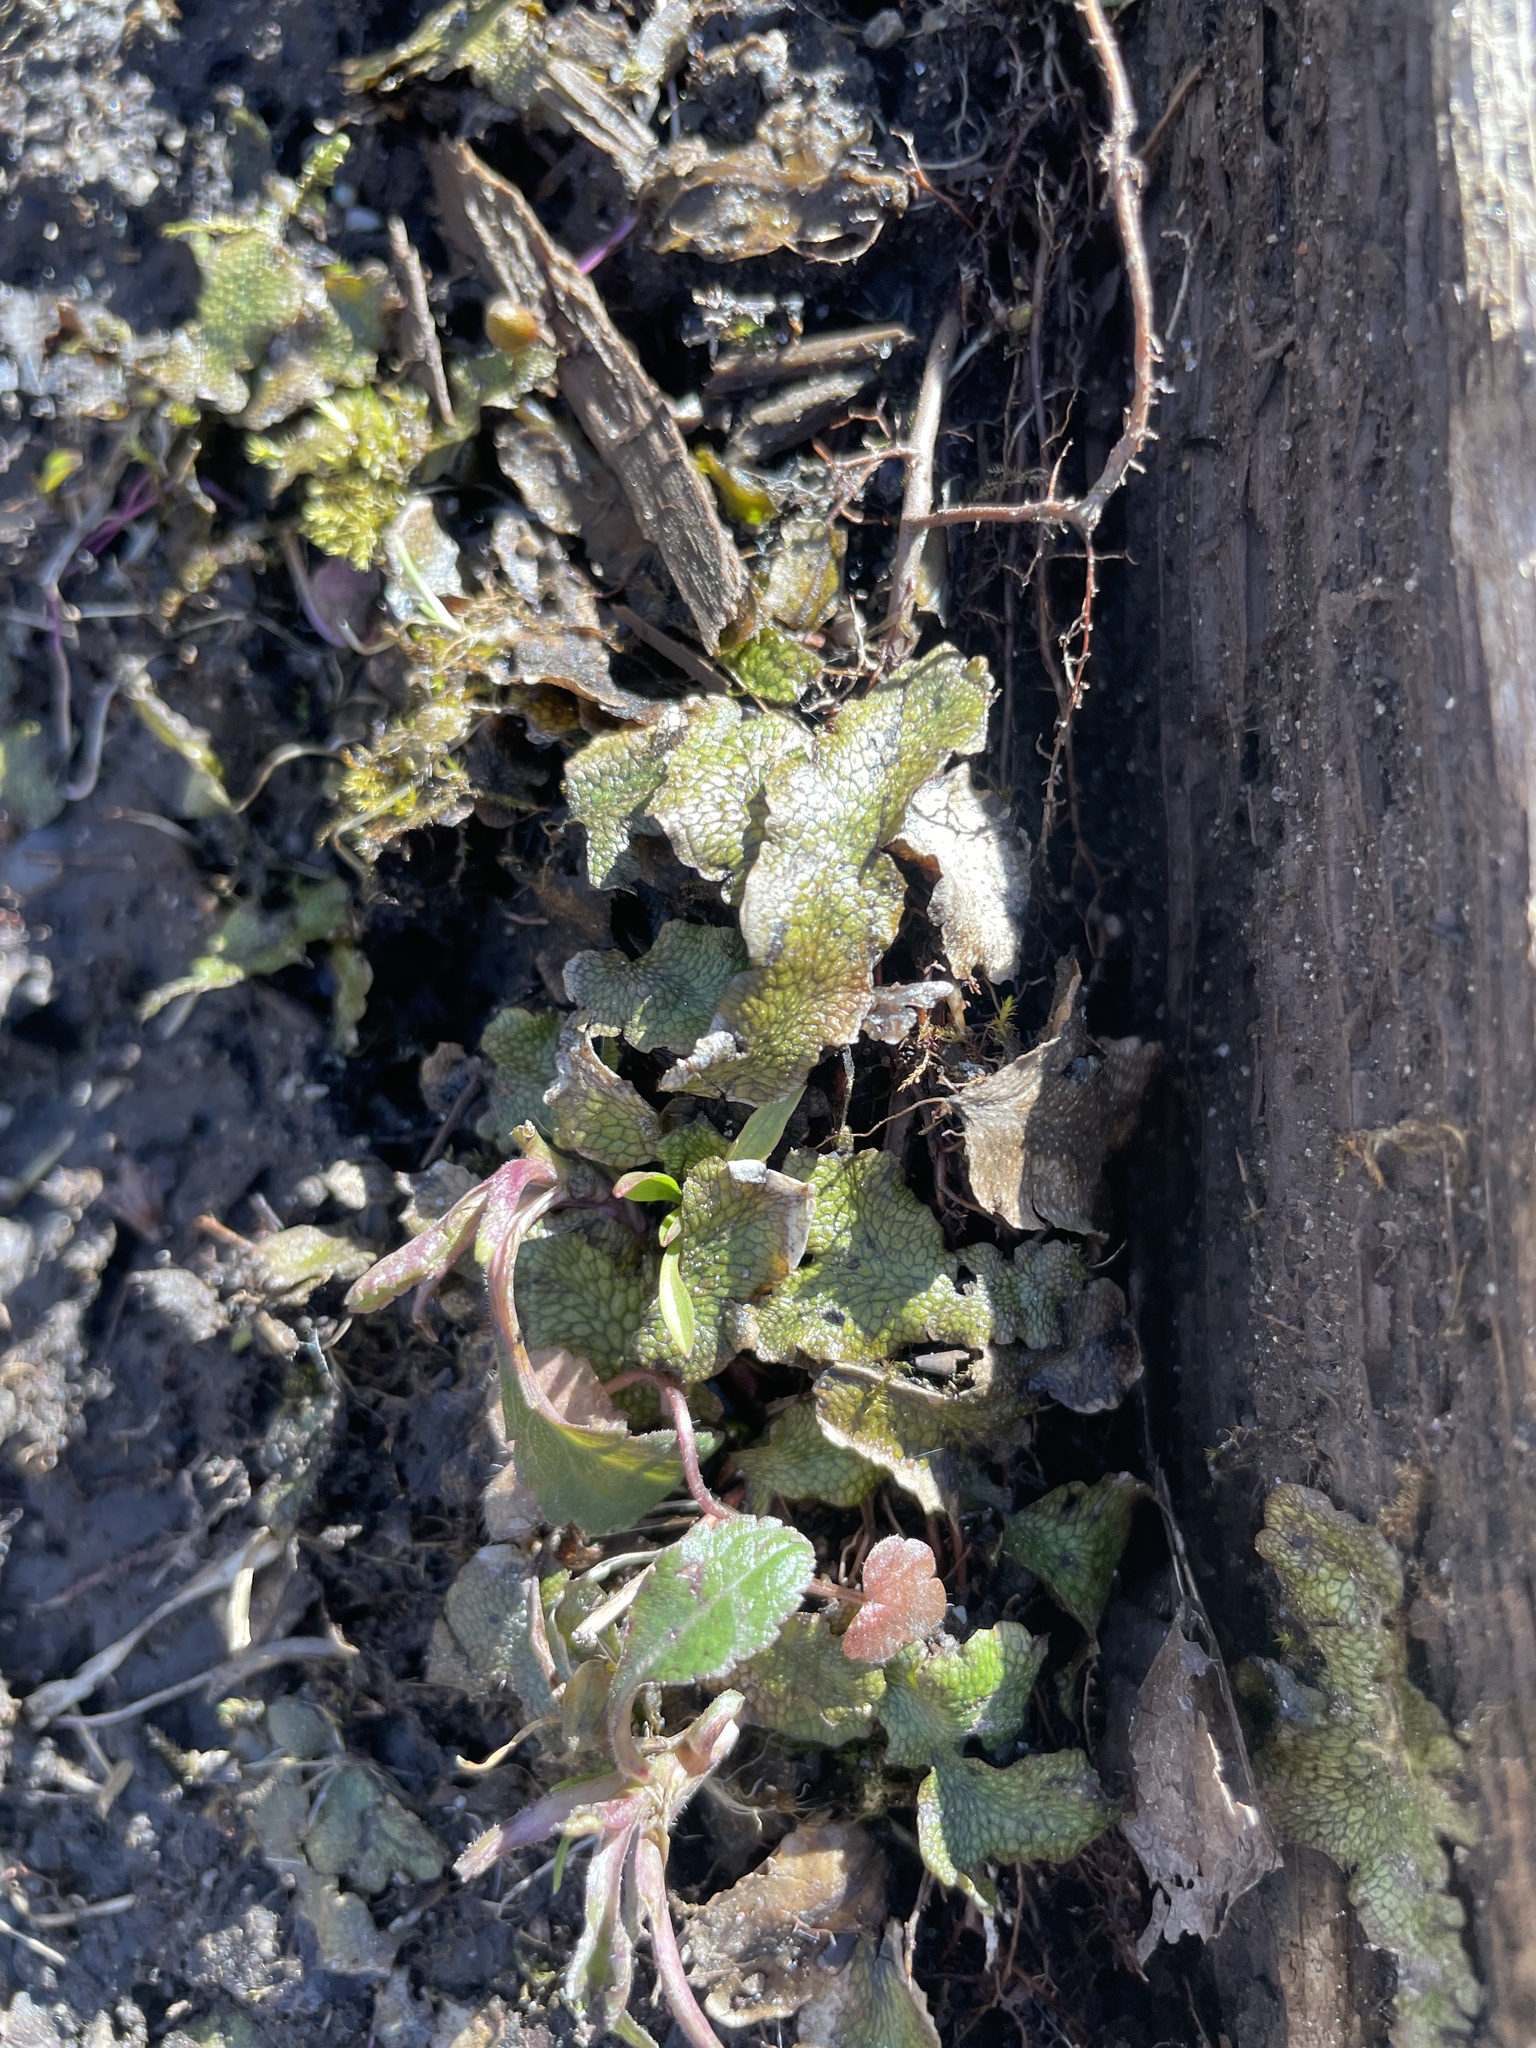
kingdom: Plantae
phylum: Marchantiophyta
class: Marchantiopsida
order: Marchantiales
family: Conocephalaceae
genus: Conocephalum
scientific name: Conocephalum salebrosum
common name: Cat-tongue liverwort
